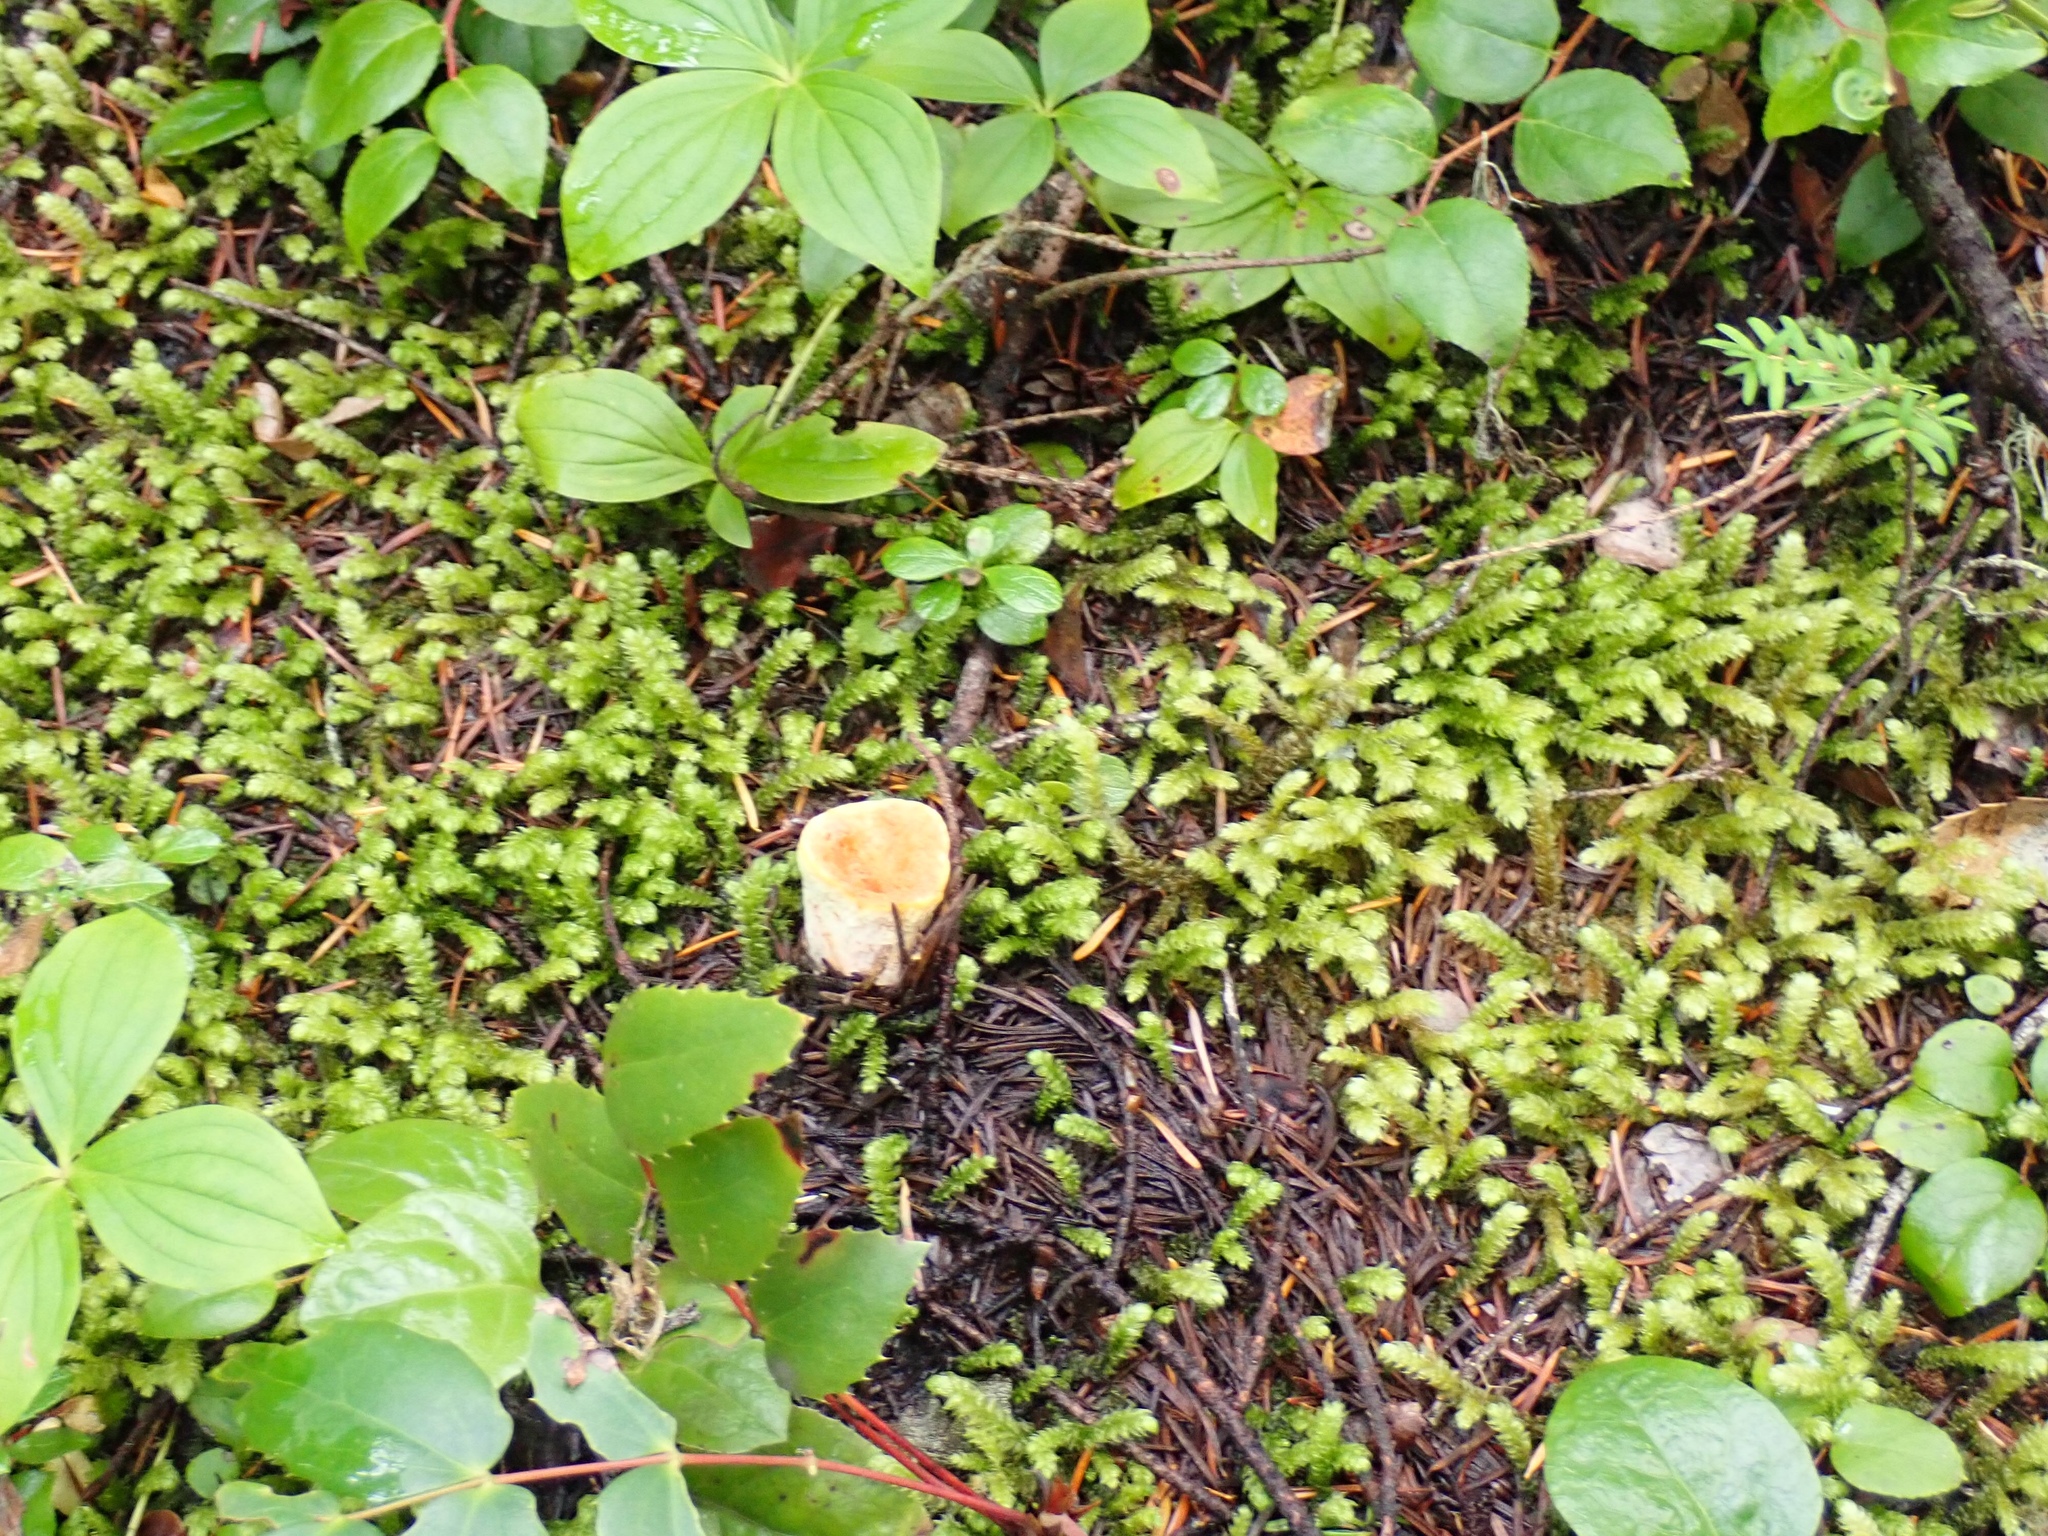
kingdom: Plantae
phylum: Bryophyta
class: Bryopsida
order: Hypnales
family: Hylocomiaceae
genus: Rhytidiopsis
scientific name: Rhytidiopsis robusta
